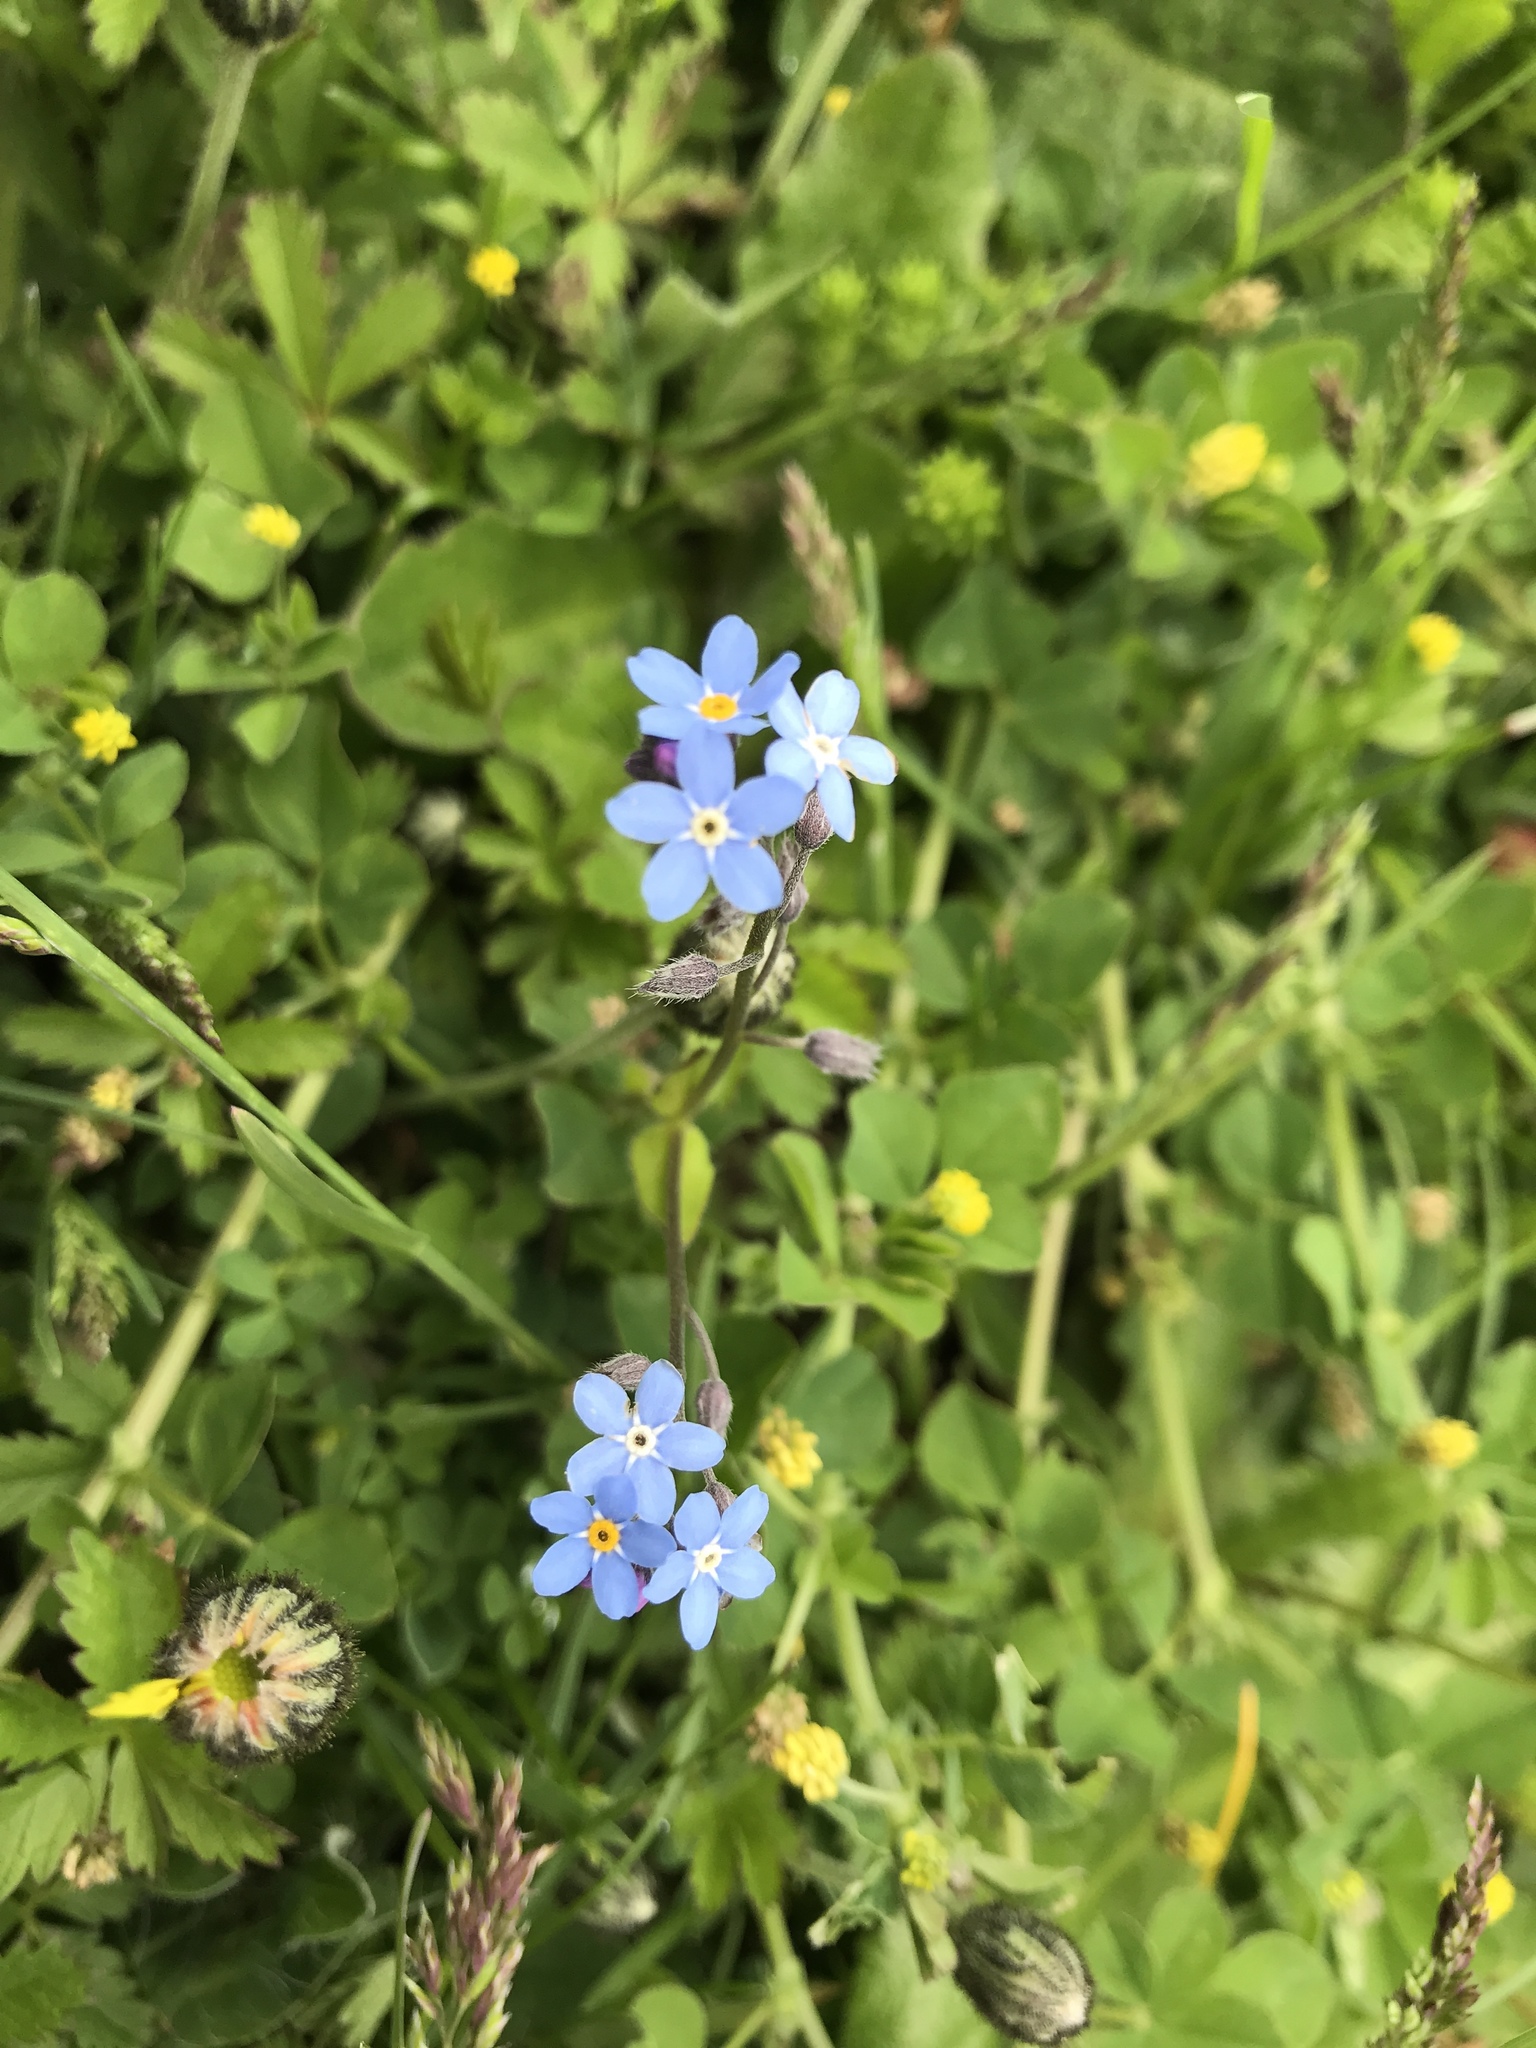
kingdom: Plantae
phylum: Tracheophyta
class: Magnoliopsida
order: Boraginales
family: Boraginaceae
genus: Myosotis
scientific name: Myosotis sylvatica
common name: Wood forget-me-not
